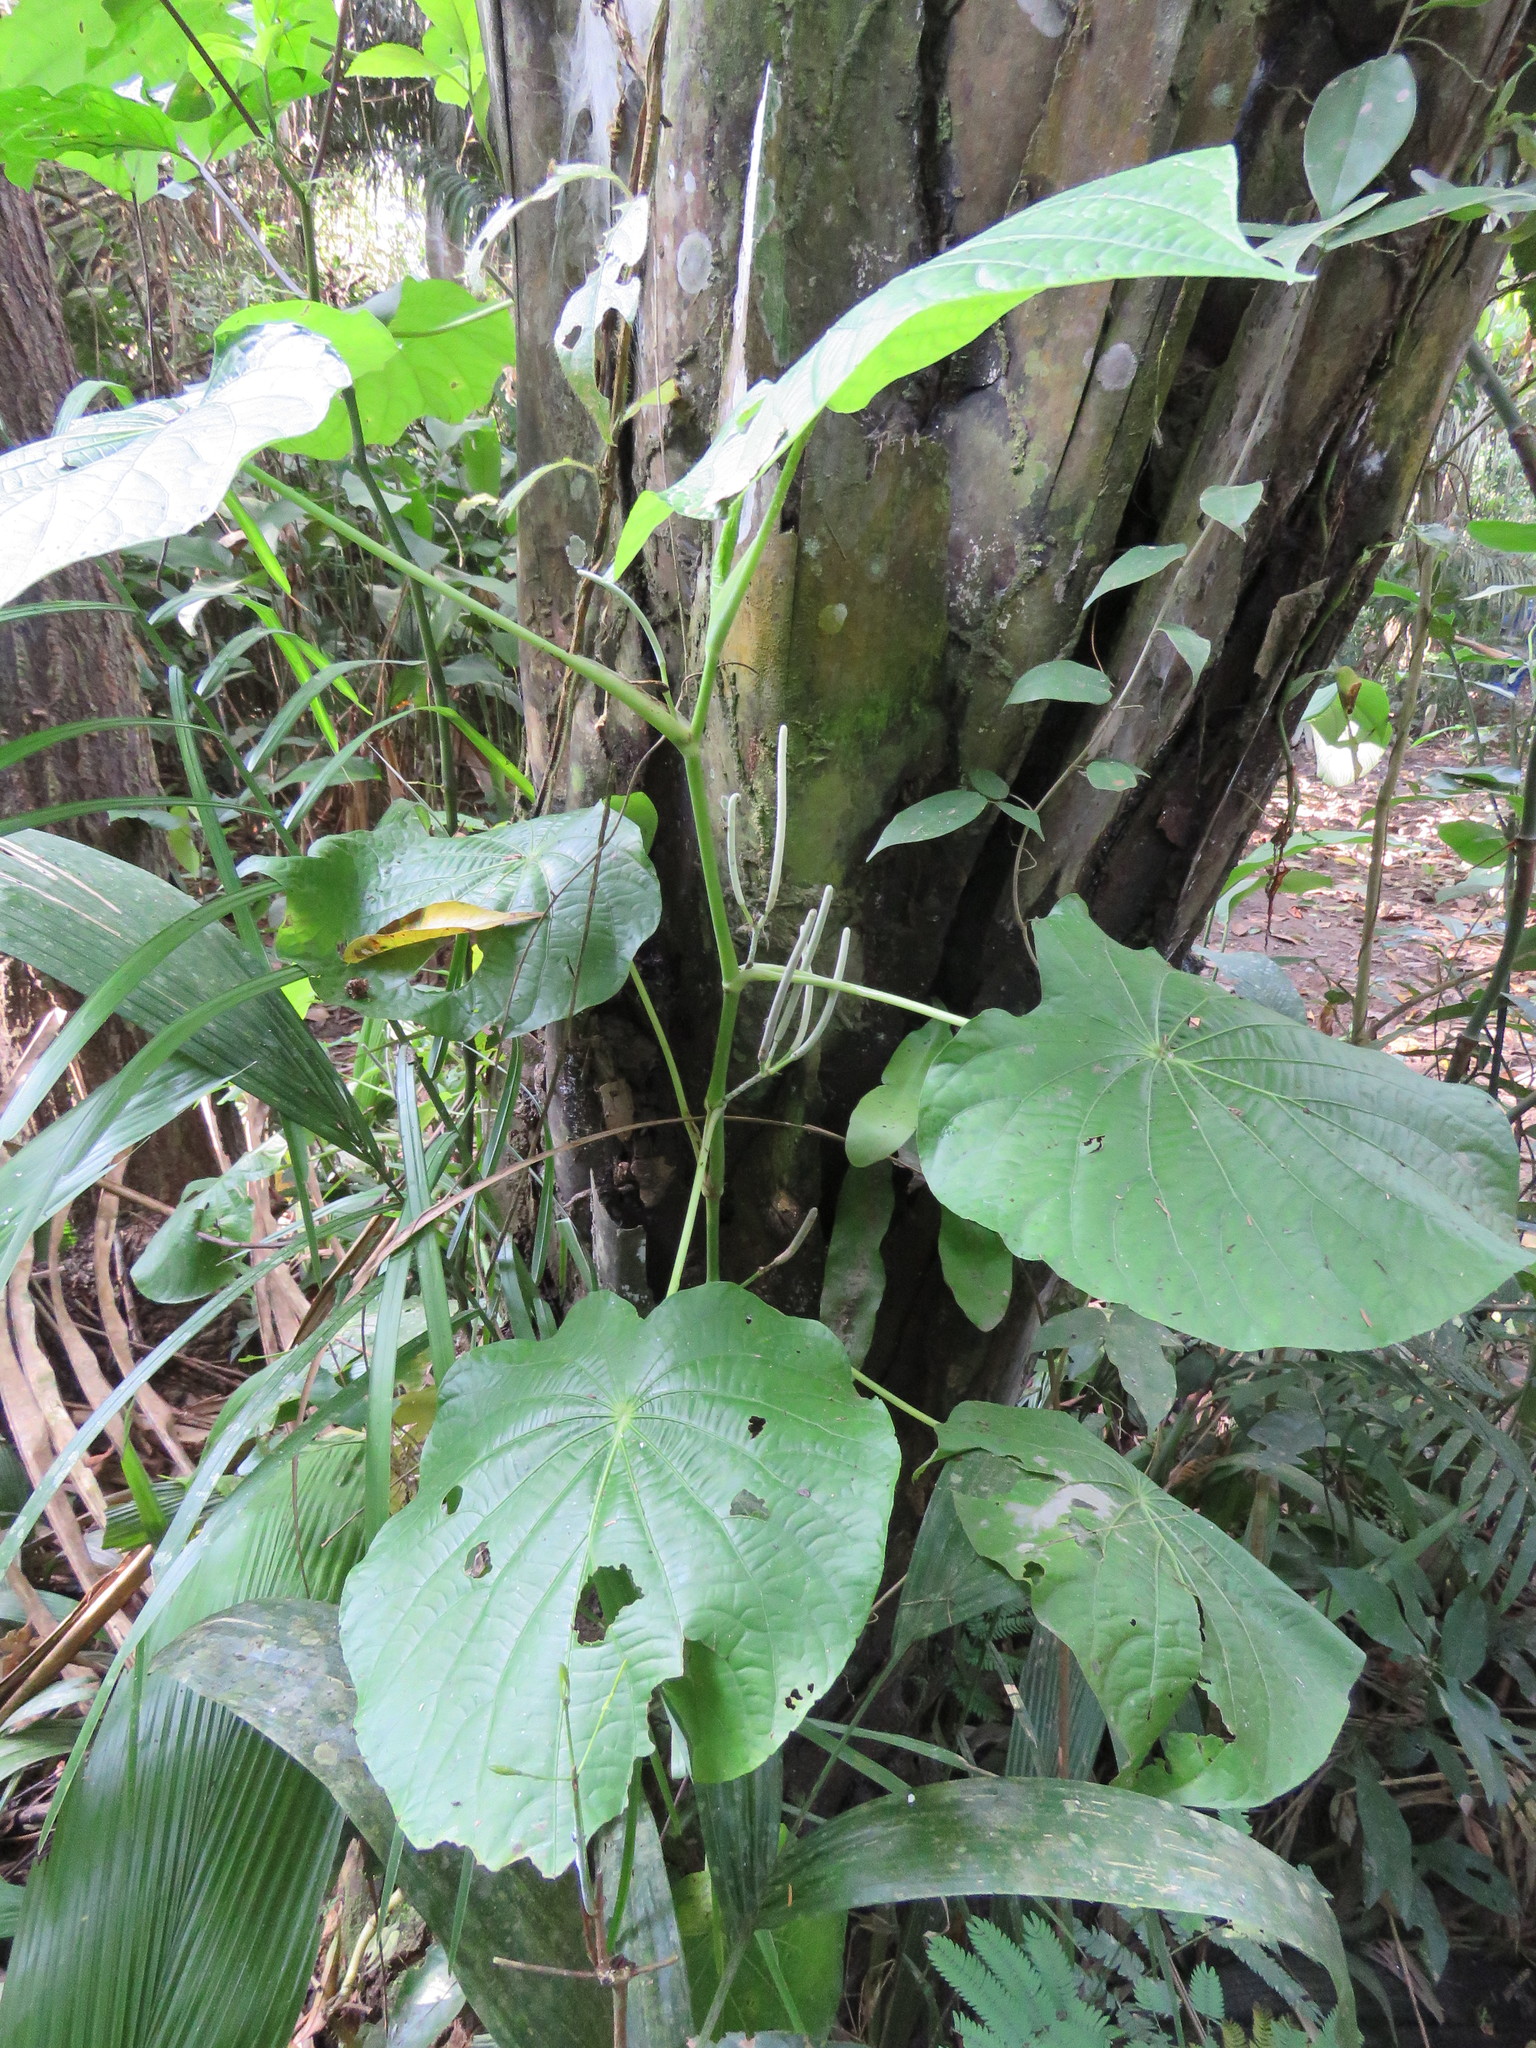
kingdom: Plantae
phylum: Tracheophyta
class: Magnoliopsida
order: Piperales
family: Piperaceae
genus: Piper
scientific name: Piper peltatum
